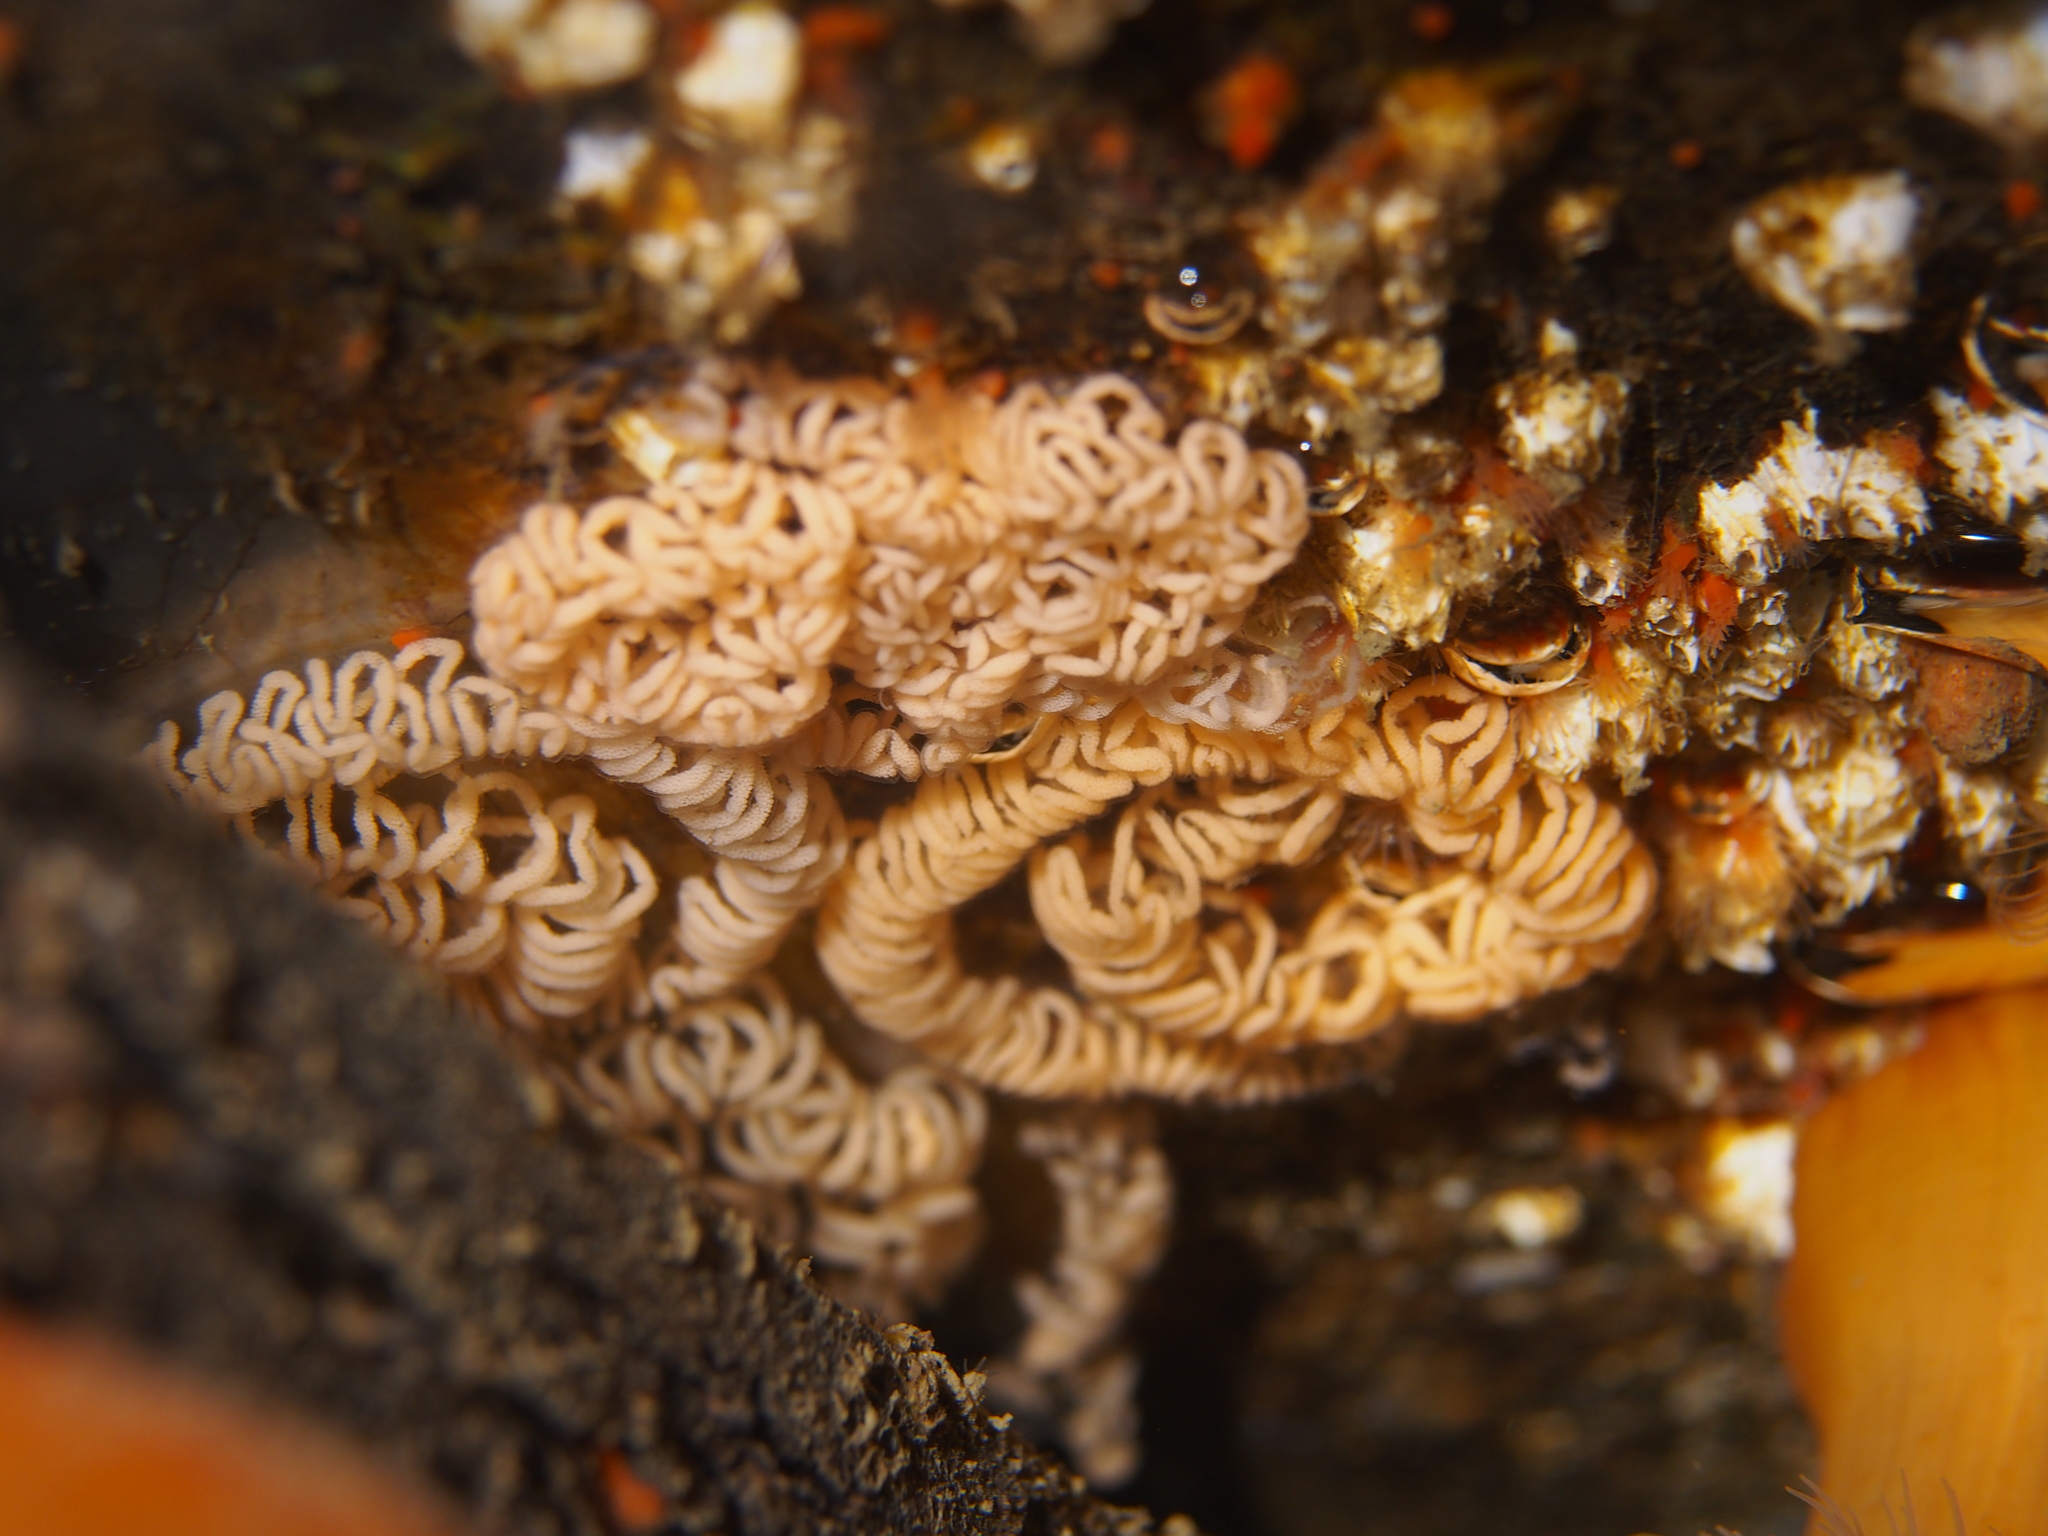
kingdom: Animalia
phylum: Mollusca
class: Gastropoda
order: Nudibranchia
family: Aeolidiidae
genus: Aeolidia
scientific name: Aeolidia papillosa
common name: Common grey sea slug
